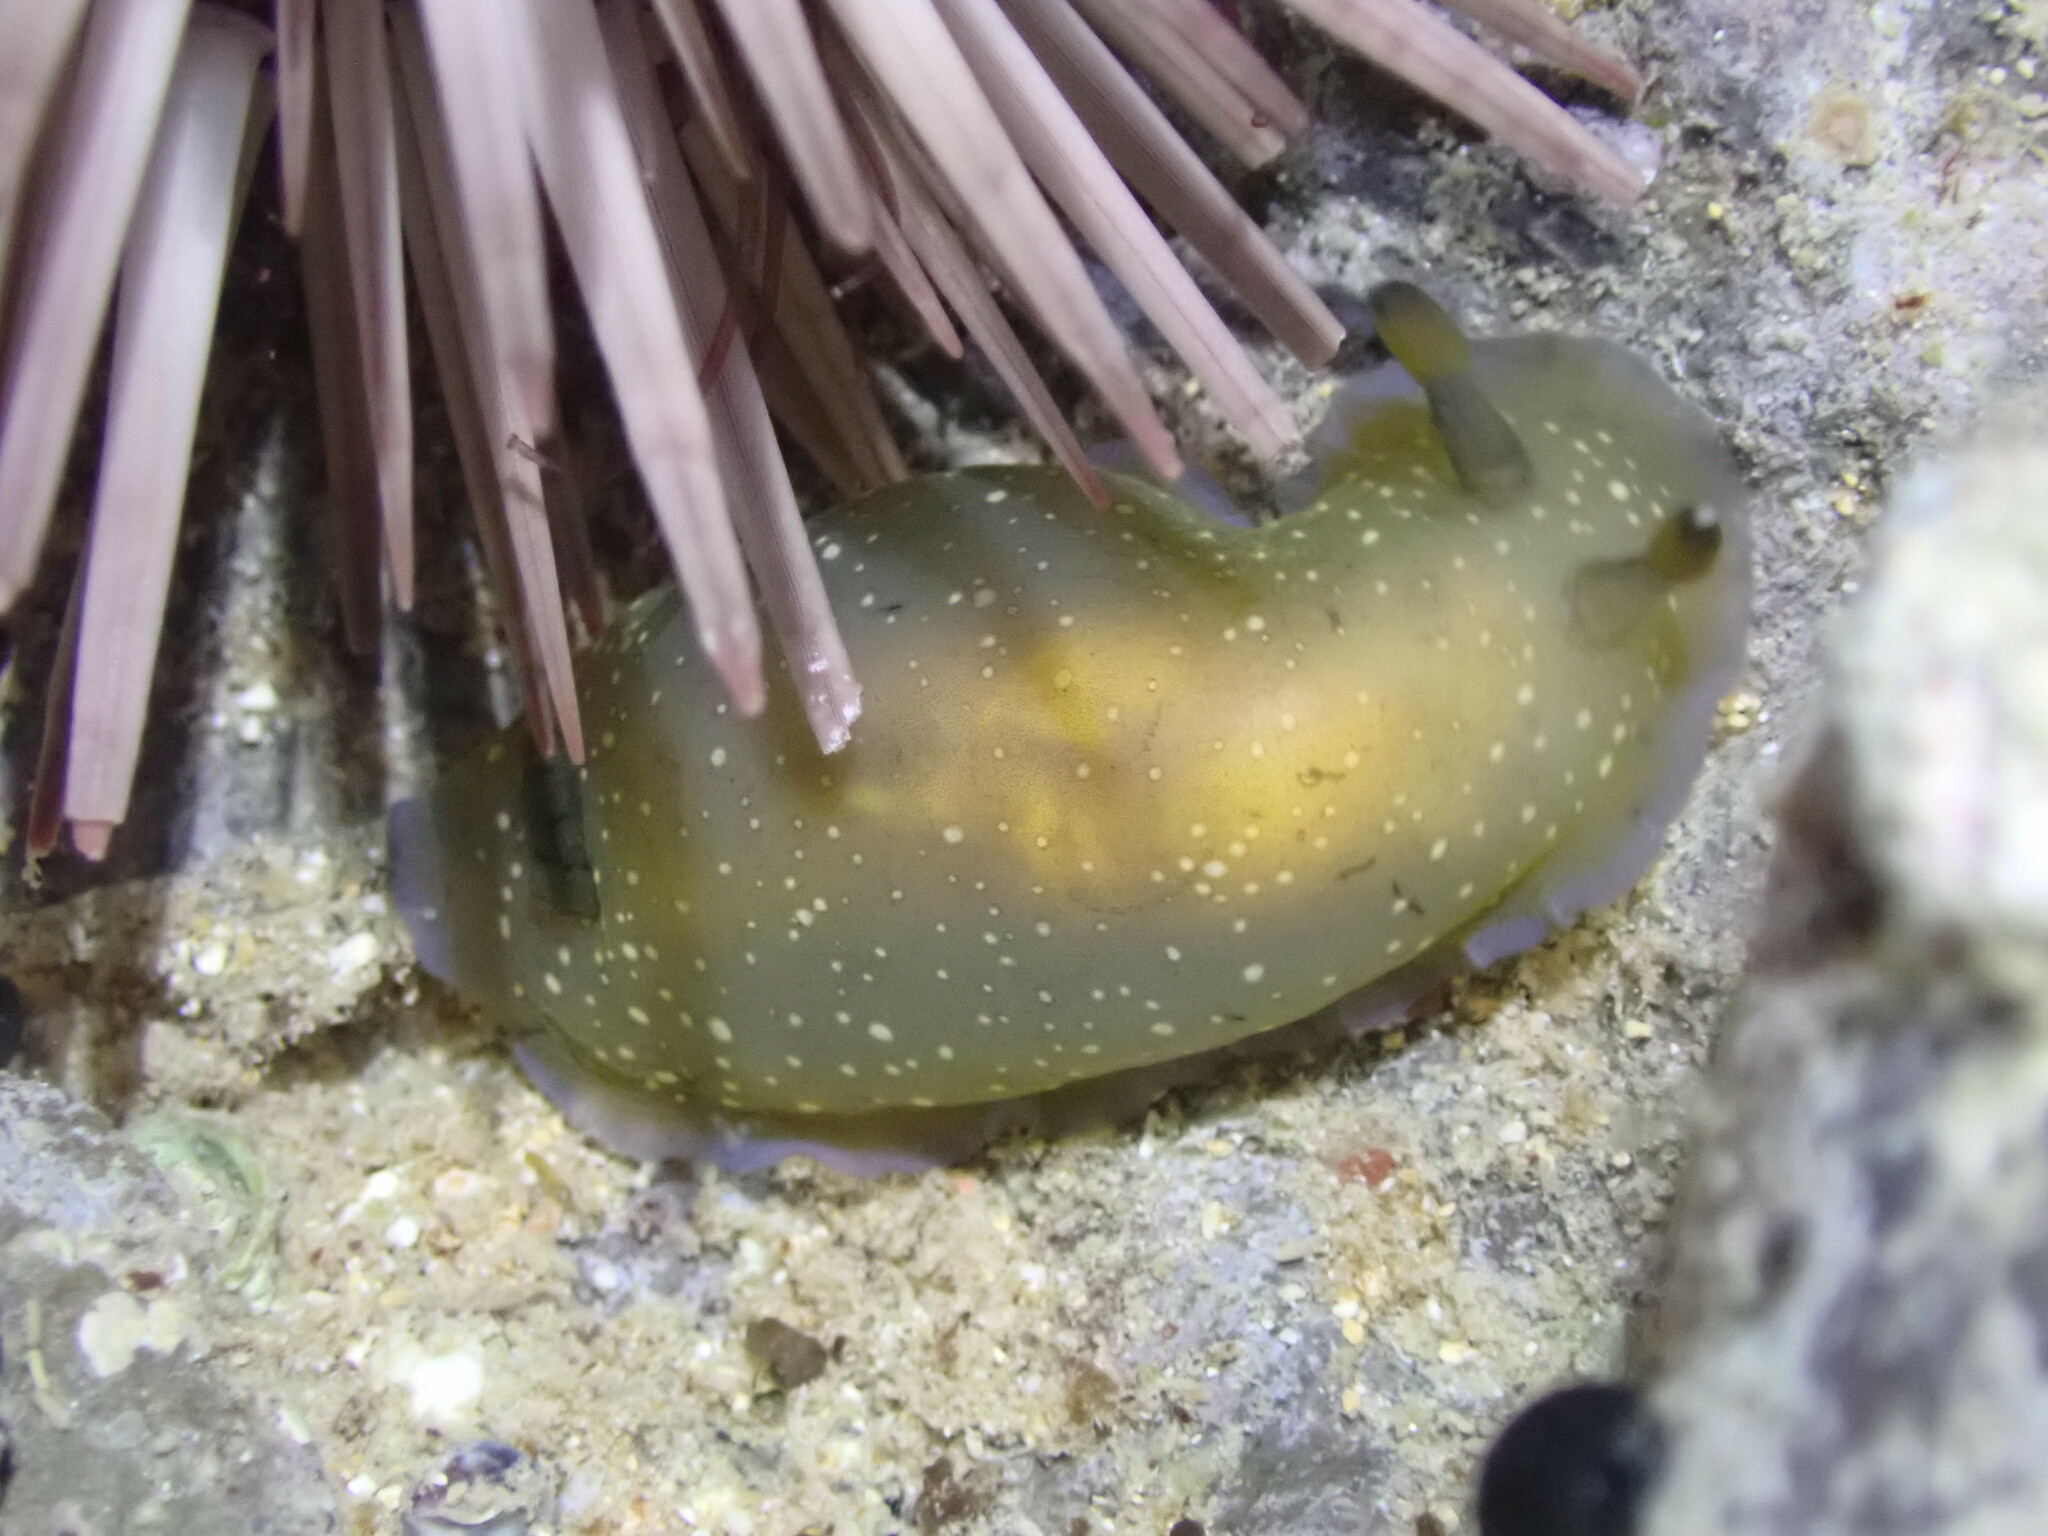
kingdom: Animalia
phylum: Mollusca
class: Gastropoda
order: Nudibranchia
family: Dendrodorididae
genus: Dendrodoris
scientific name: Dendrodoris nigra
